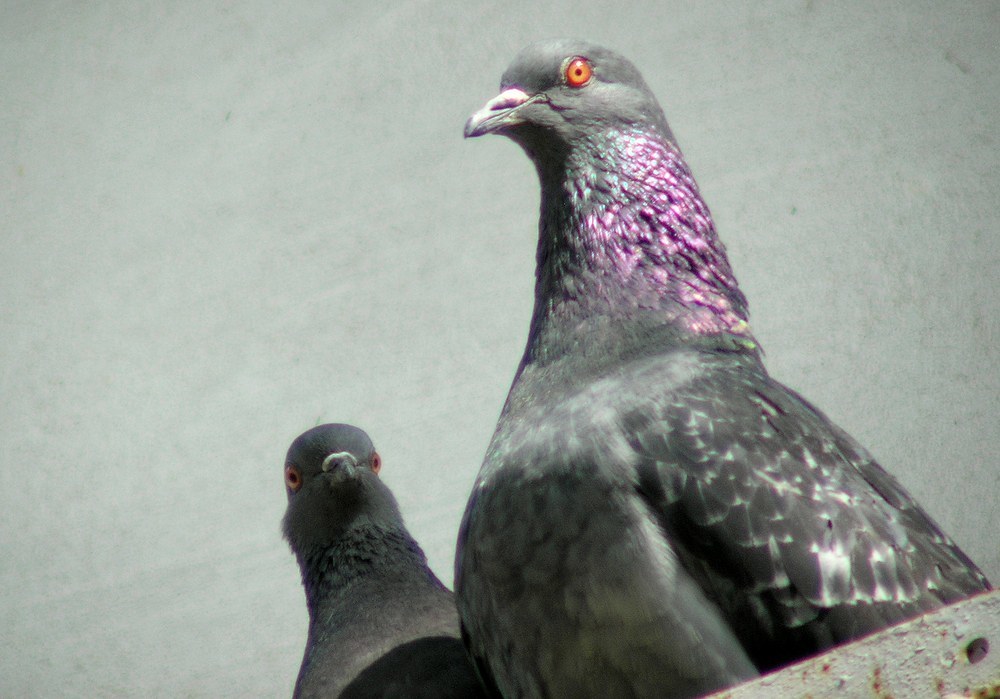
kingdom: Animalia
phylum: Chordata
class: Aves
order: Columbiformes
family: Columbidae
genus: Columba
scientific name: Columba livia
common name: Rock pigeon
